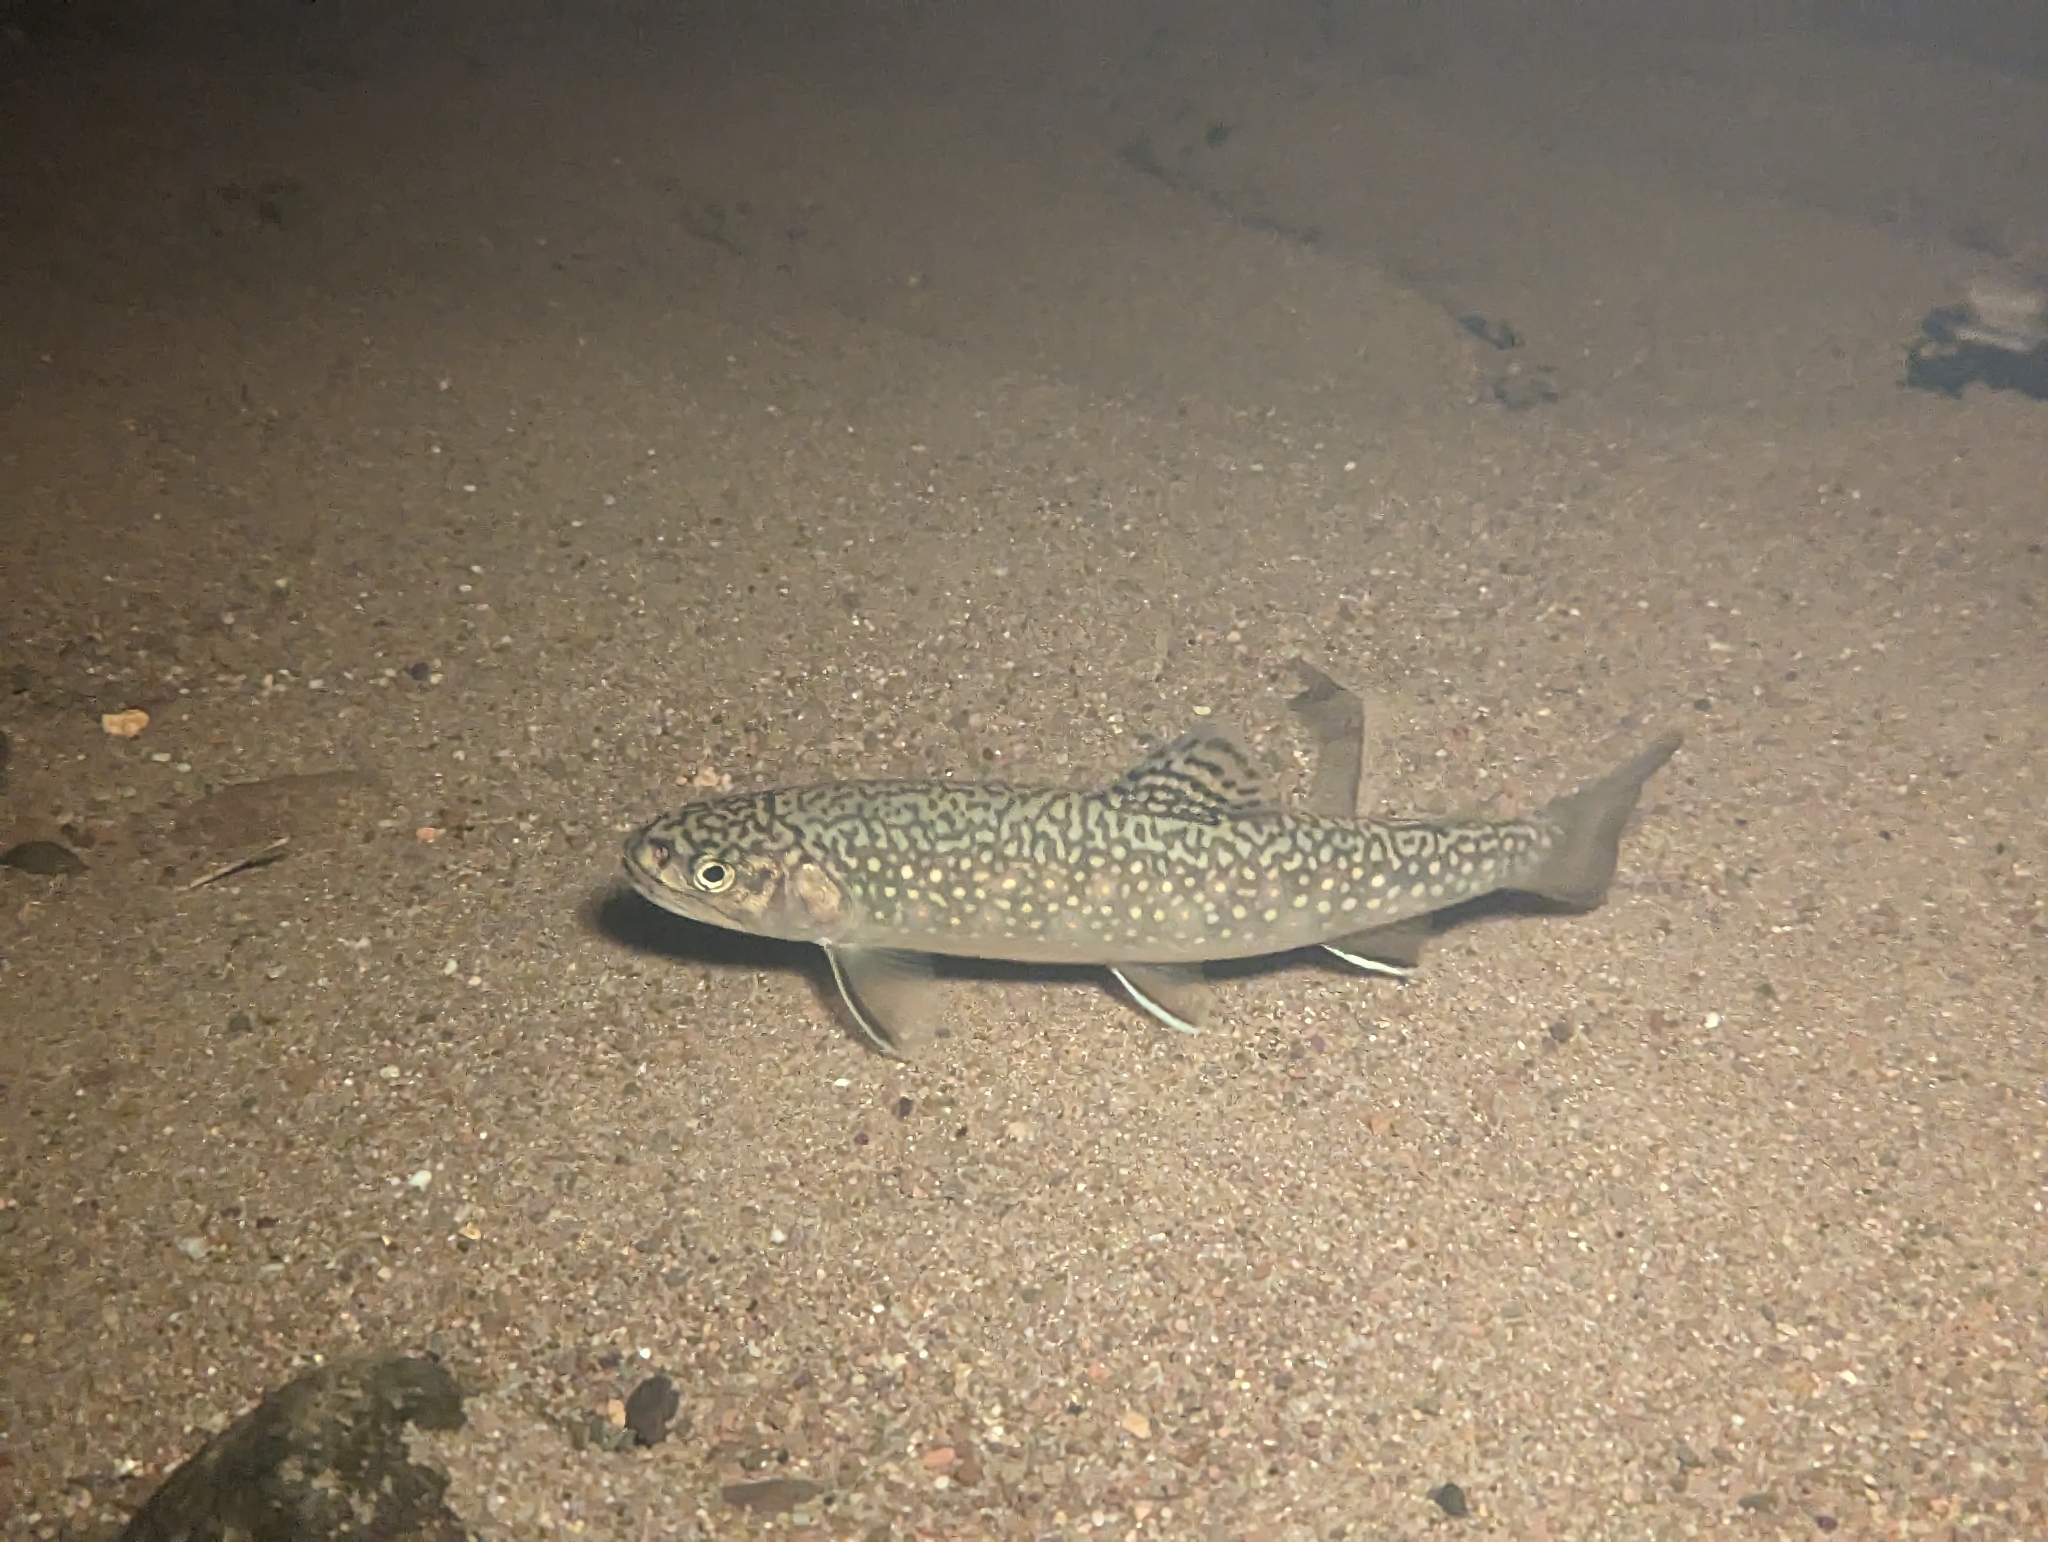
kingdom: Animalia
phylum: Chordata
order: Salmoniformes
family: Salmonidae
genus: Salvelinus
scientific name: Salvelinus fontinalis
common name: Brook trout
